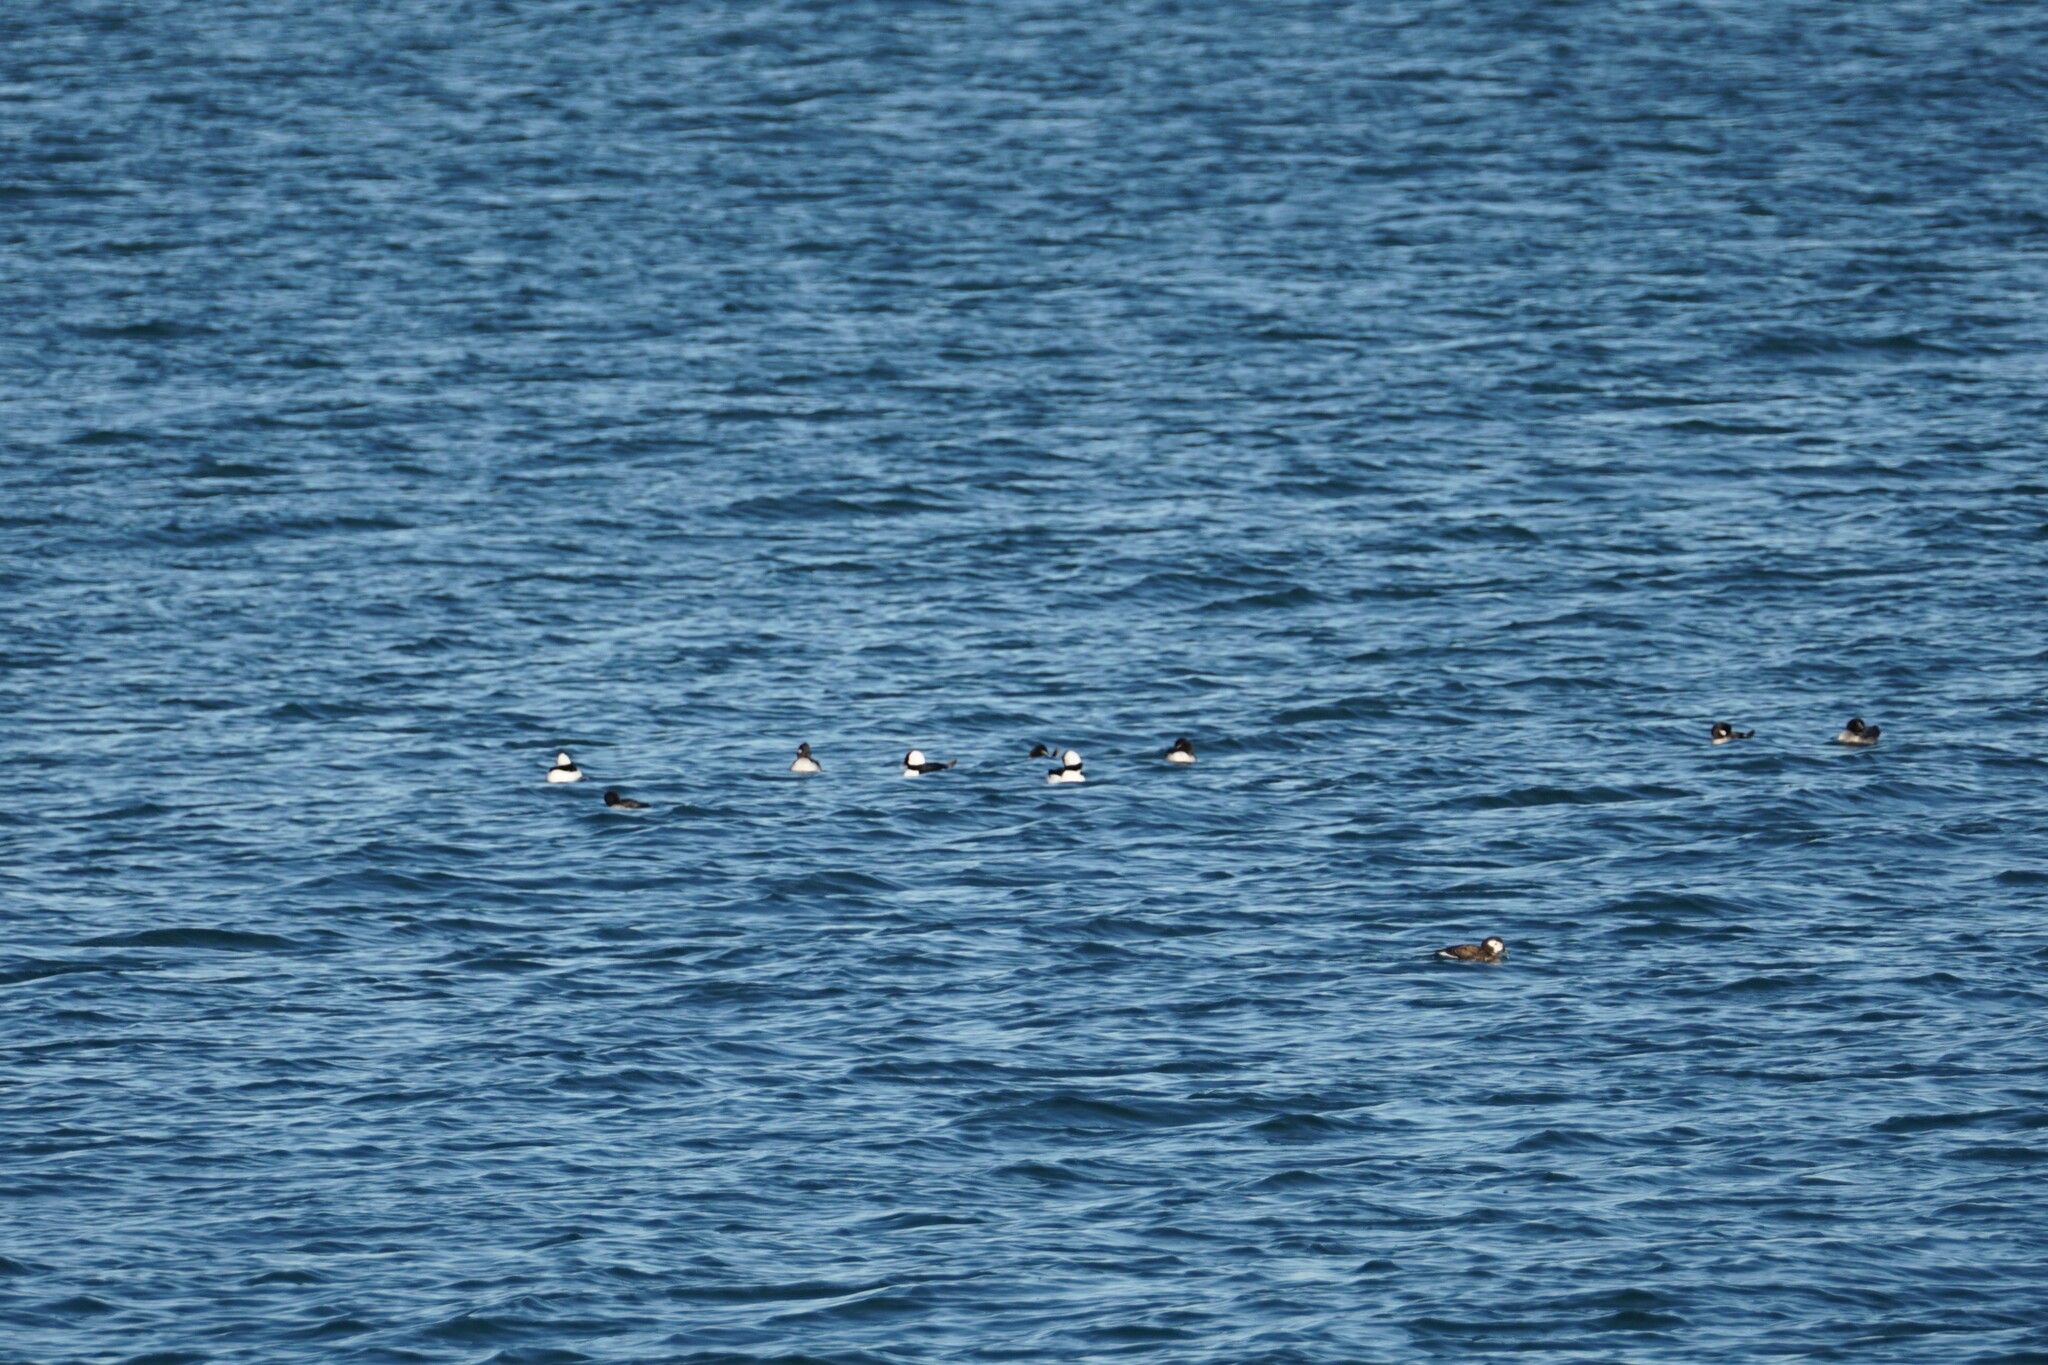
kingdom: Animalia
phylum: Chordata
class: Aves
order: Anseriformes
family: Anatidae
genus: Bucephala
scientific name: Bucephala albeola
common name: Bufflehead
